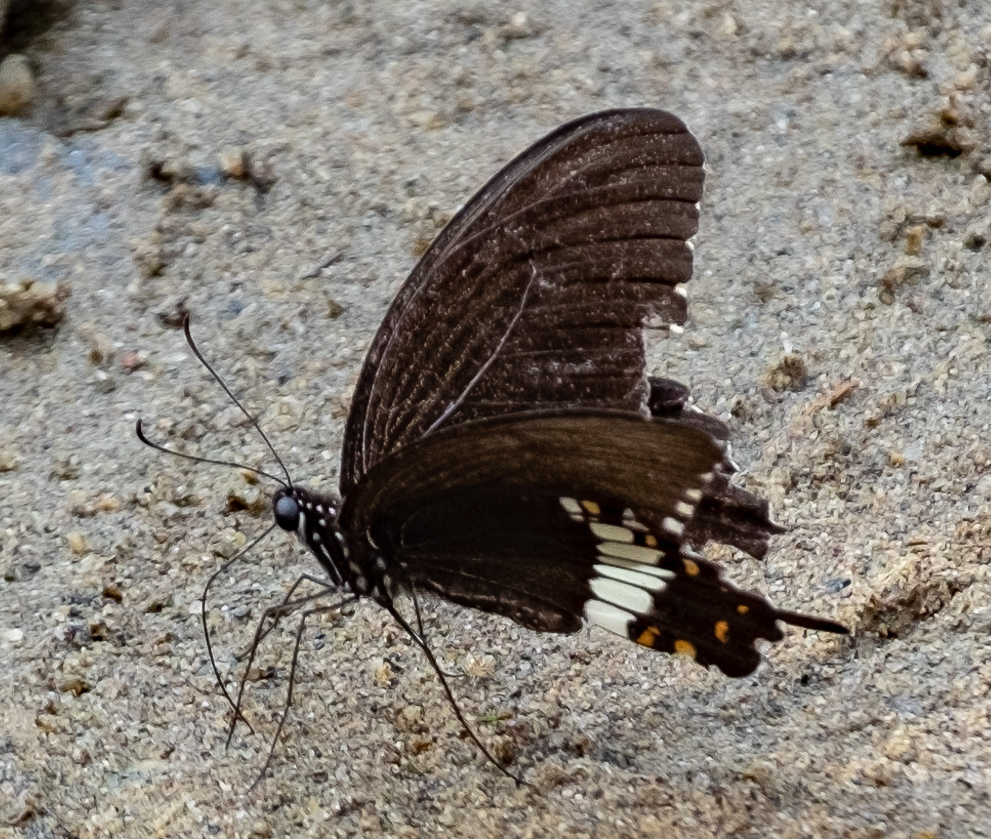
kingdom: Animalia
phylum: Arthropoda
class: Insecta
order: Lepidoptera
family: Papilionidae
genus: Papilio
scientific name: Papilio polytes
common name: Common mormon
